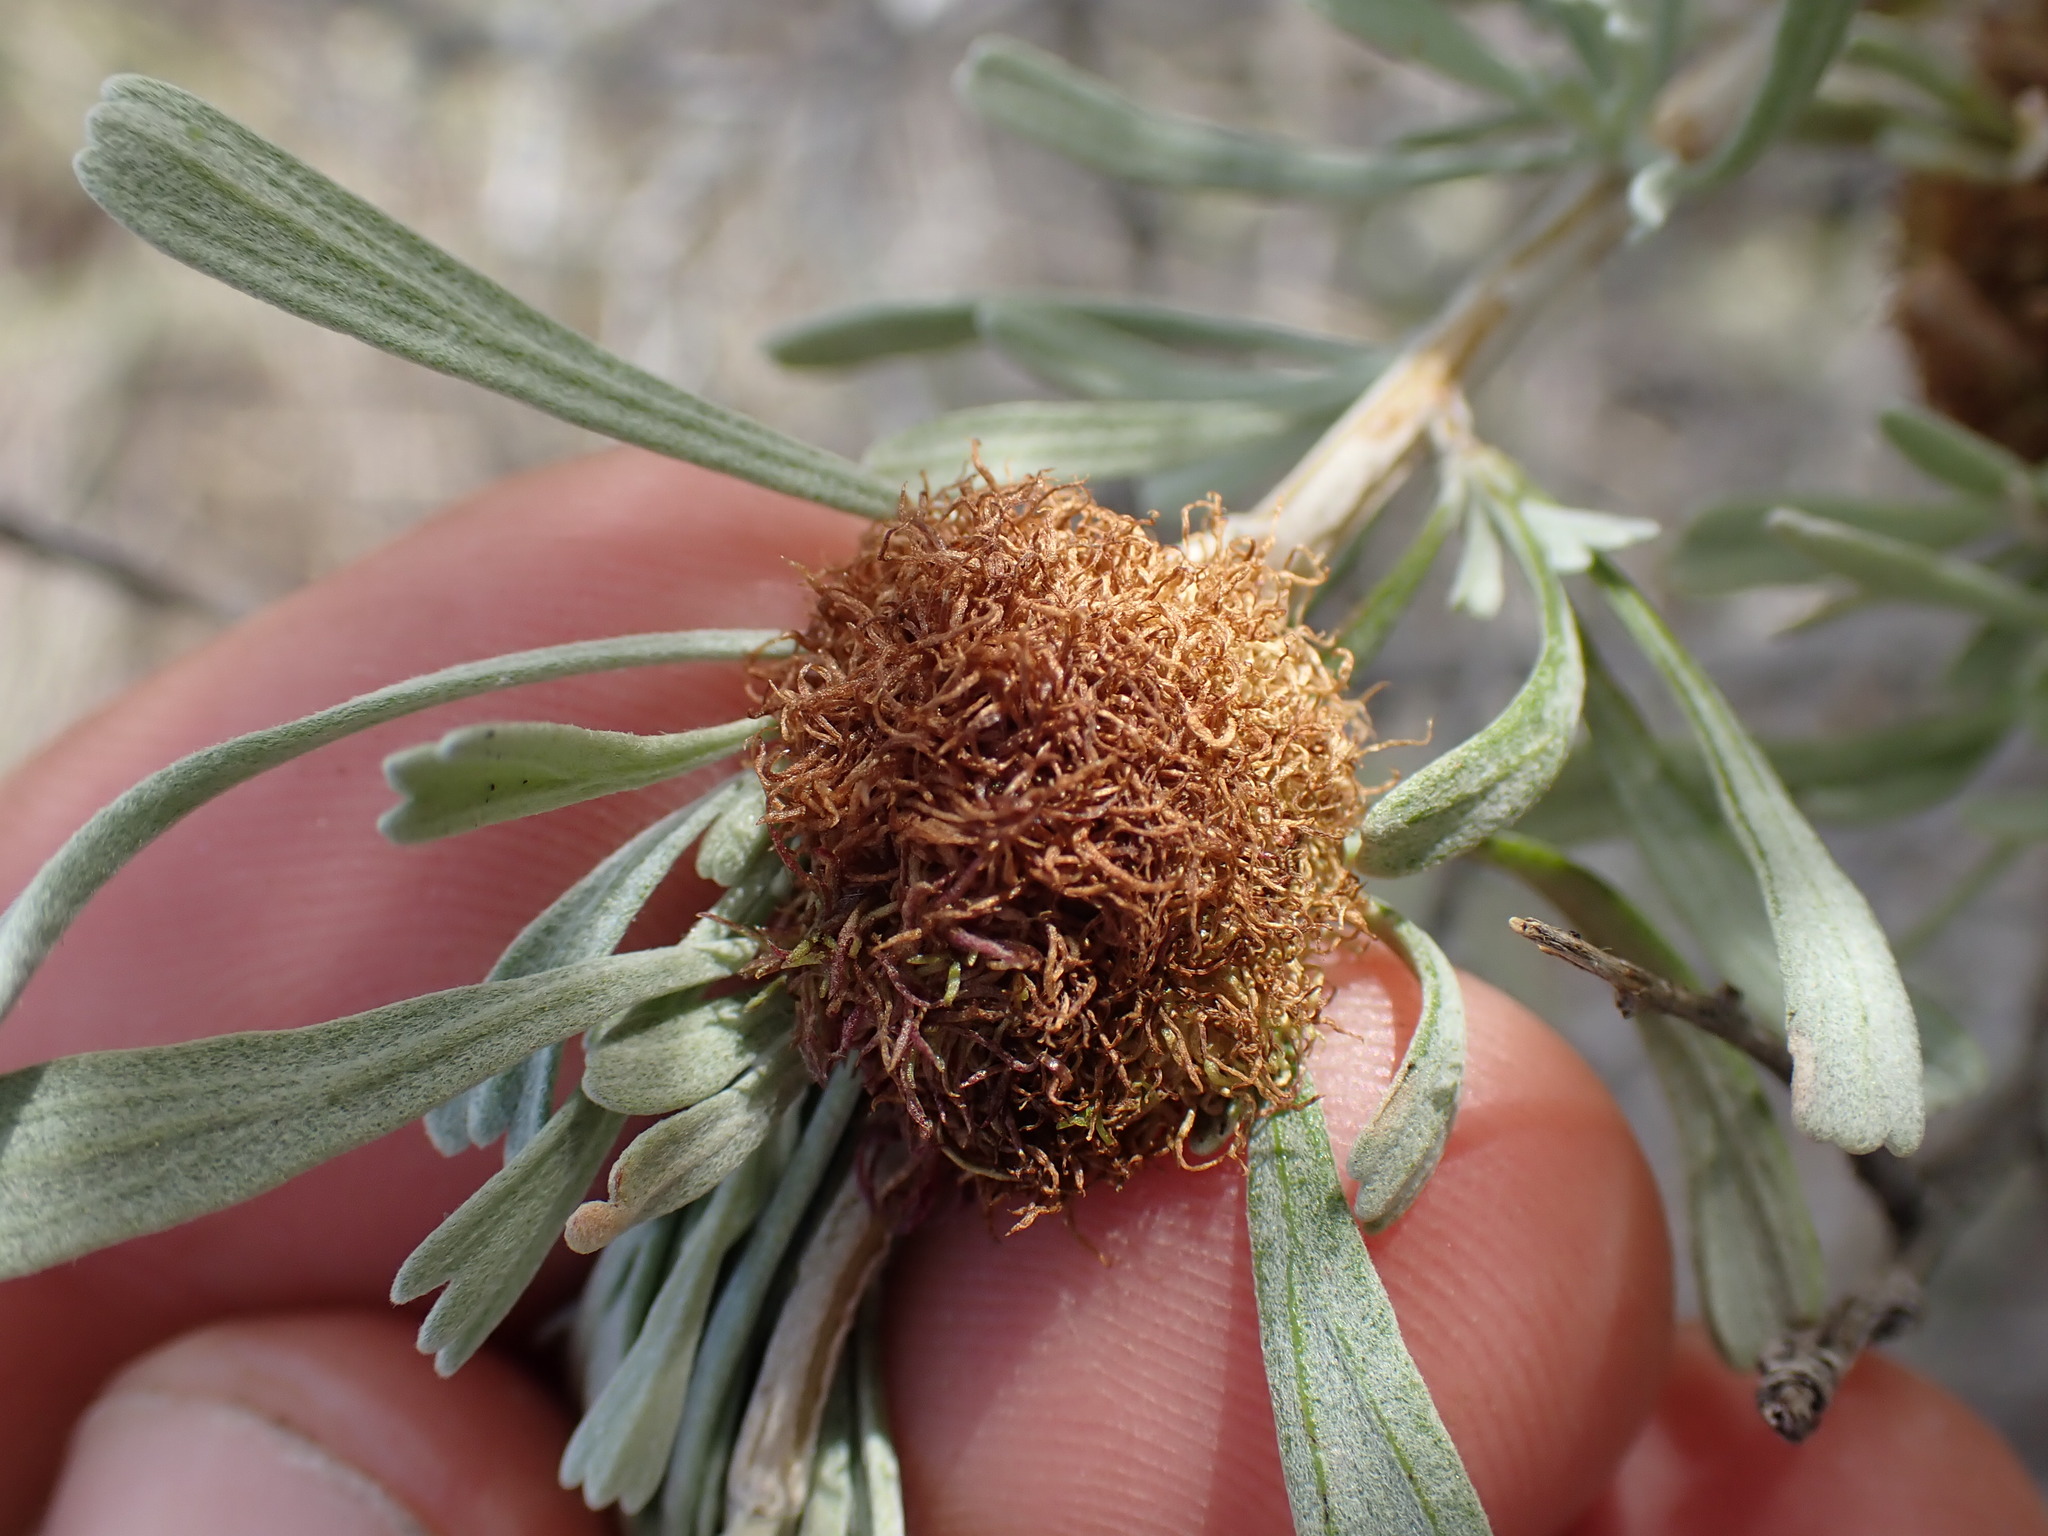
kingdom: Animalia
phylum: Arthropoda
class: Insecta
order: Diptera
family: Cecidomyiidae
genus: Rhopalomyia
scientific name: Rhopalomyia medusa
